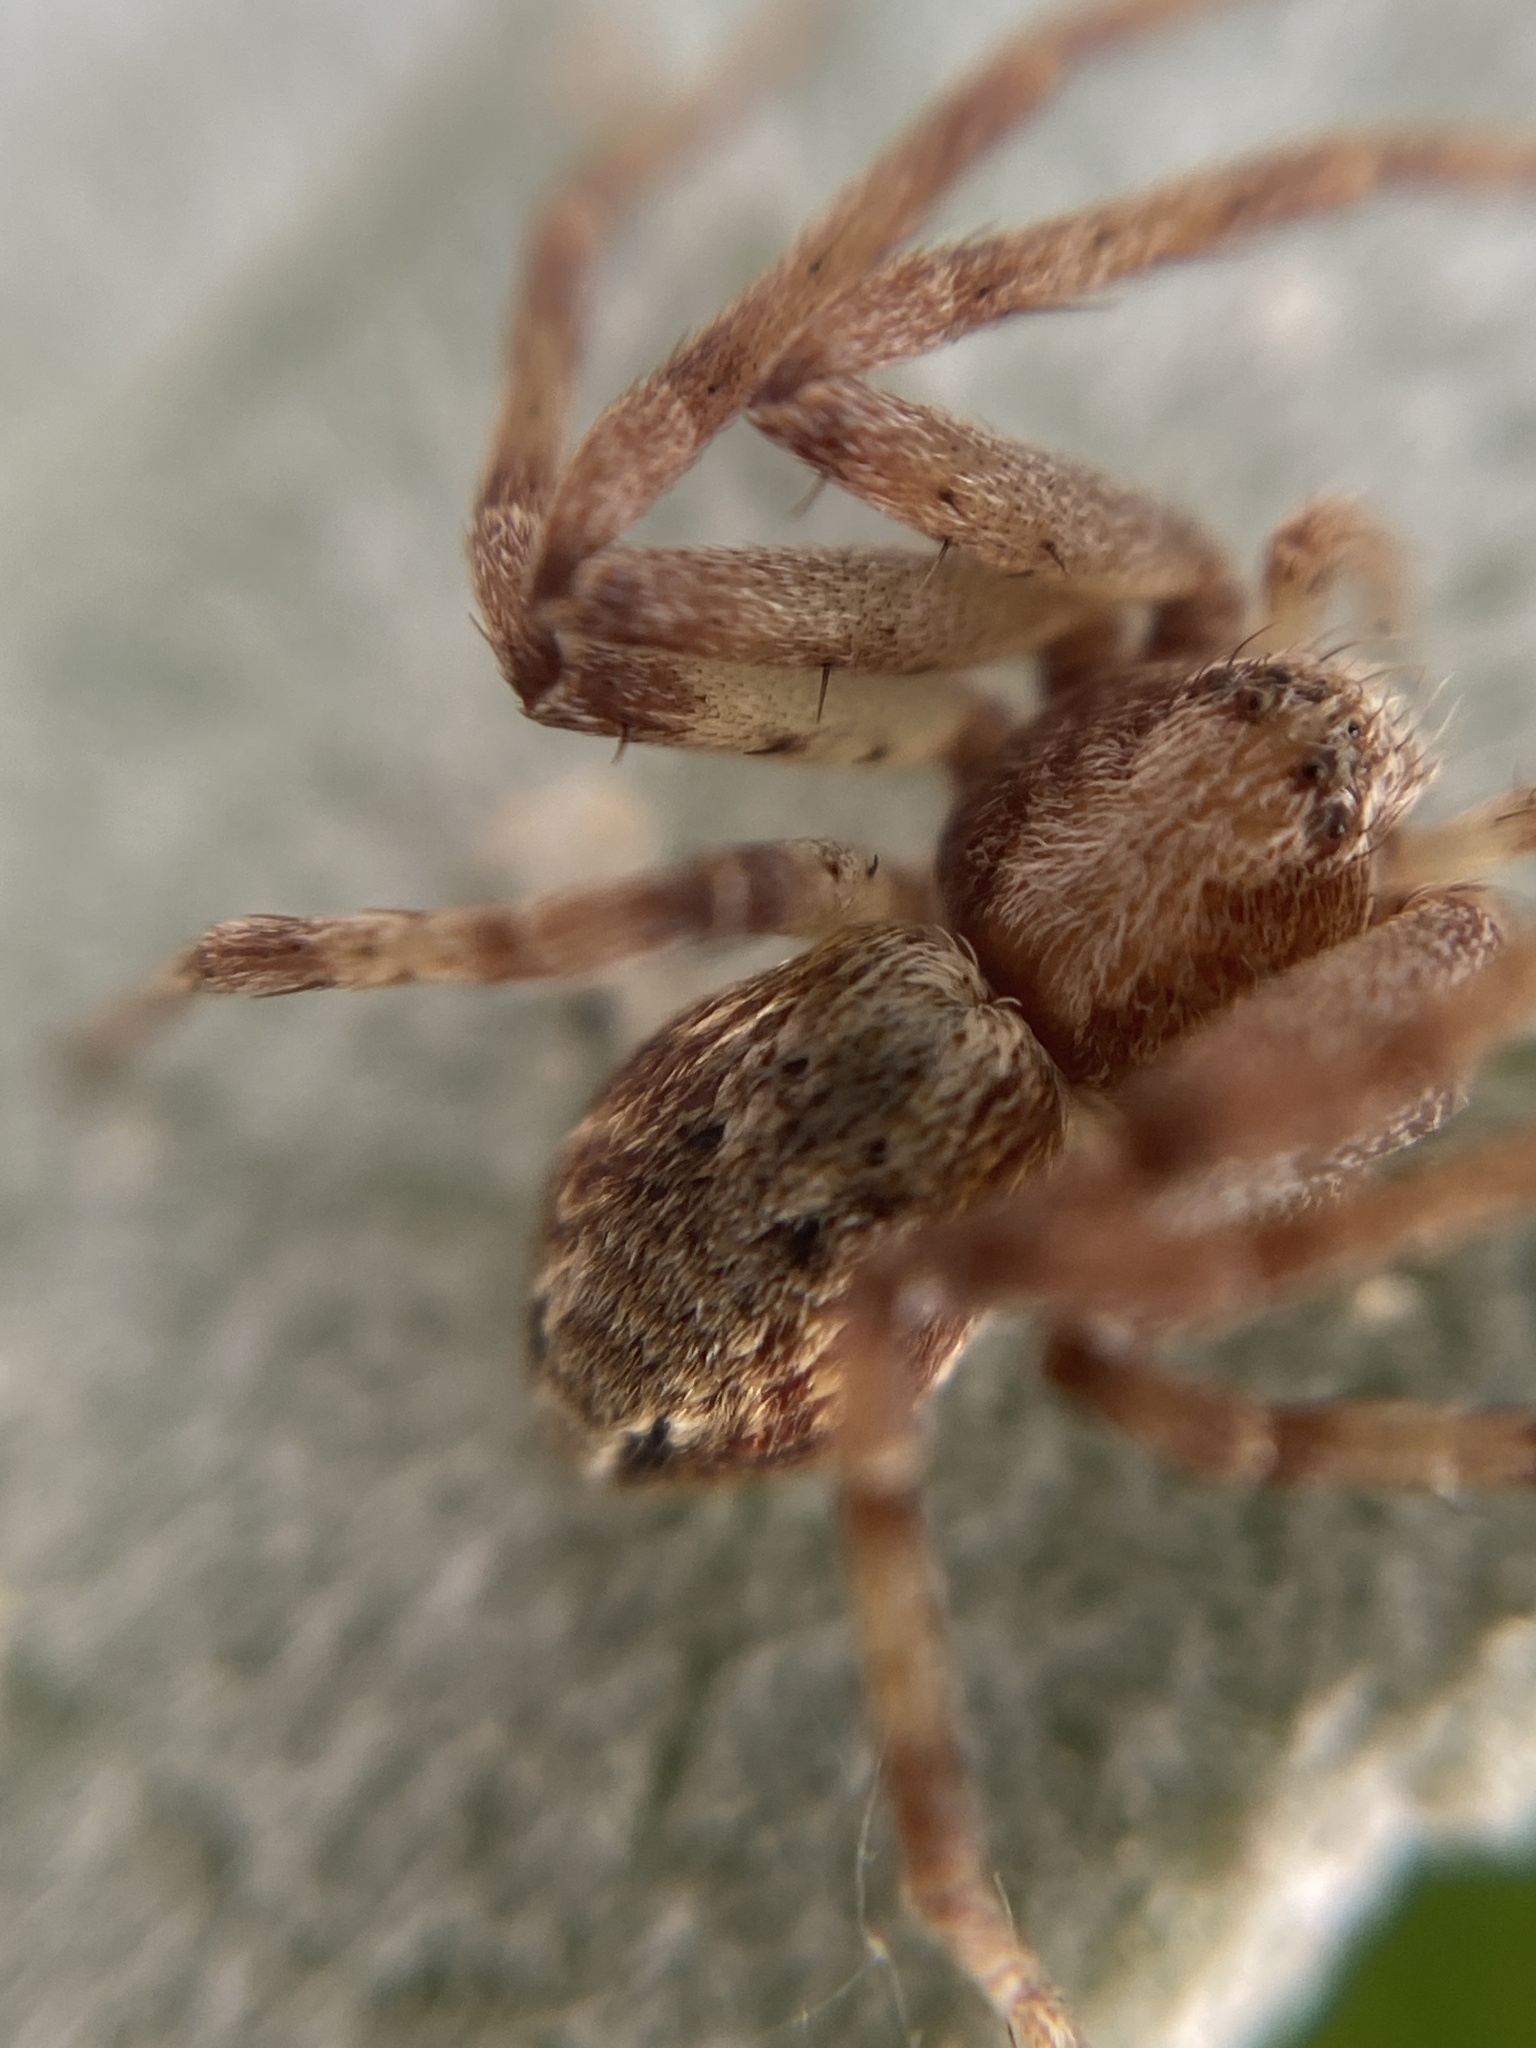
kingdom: Animalia
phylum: Arthropoda
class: Arachnida
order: Araneae
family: Philodromidae
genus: Philodromus
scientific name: Philodromus
